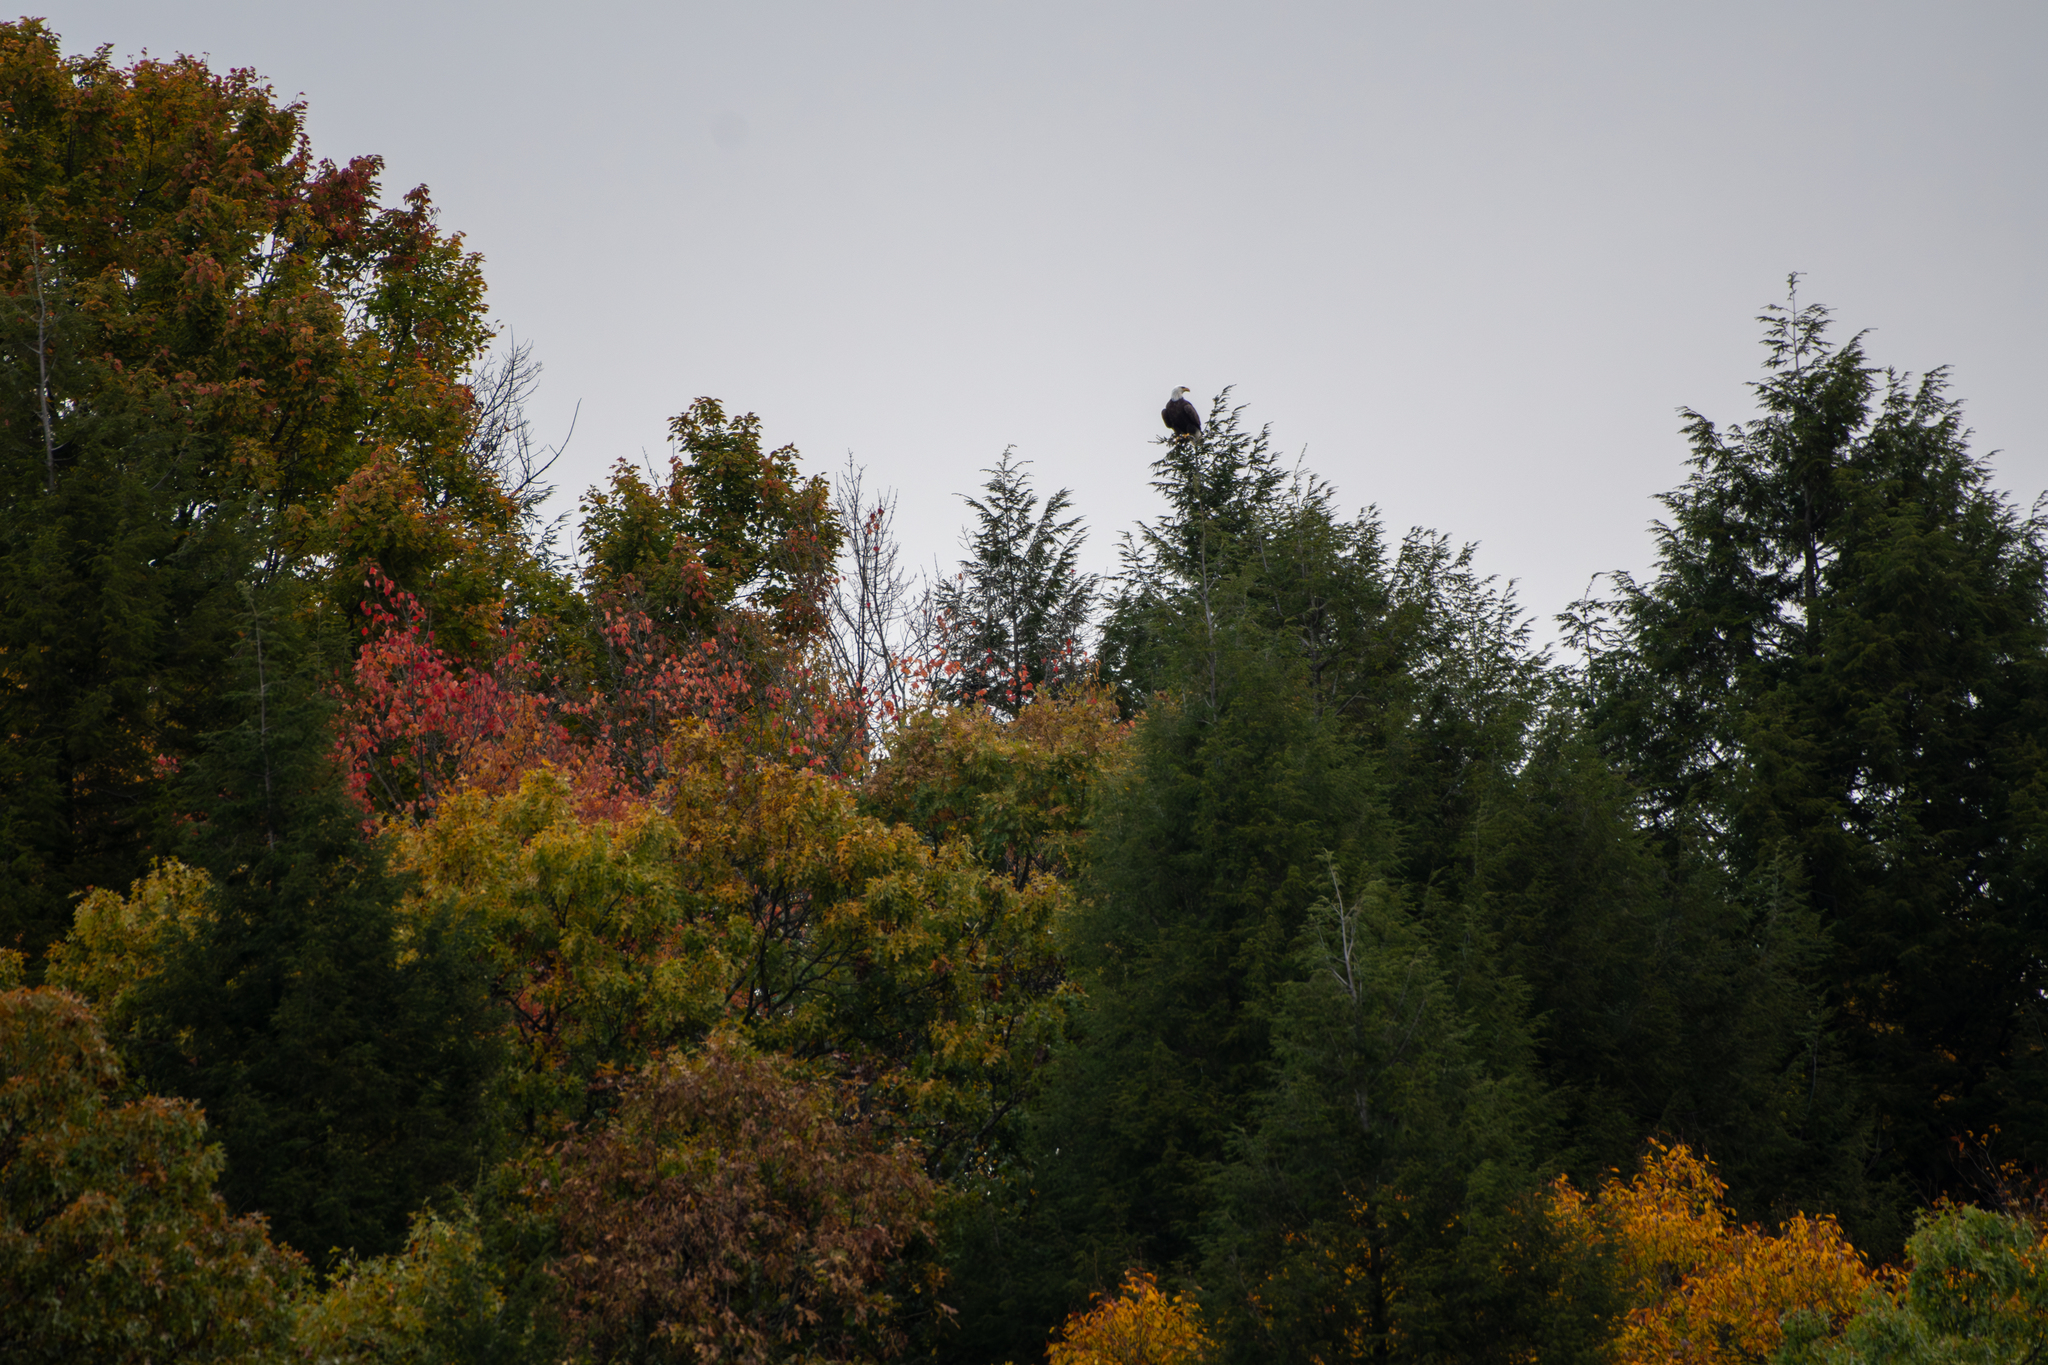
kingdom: Animalia
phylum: Chordata
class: Aves
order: Accipitriformes
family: Accipitridae
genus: Haliaeetus
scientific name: Haliaeetus leucocephalus
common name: Bald eagle
